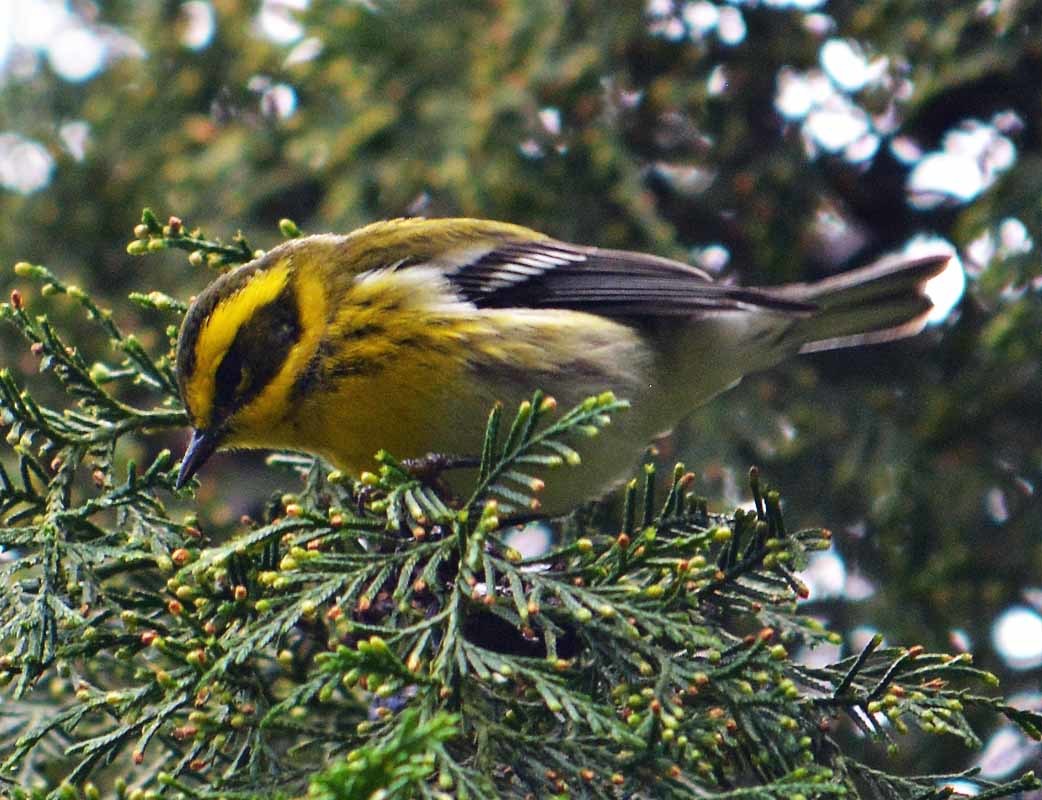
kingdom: Animalia
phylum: Chordata
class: Aves
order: Passeriformes
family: Parulidae
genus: Setophaga
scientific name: Setophaga townsendi
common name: Townsend's warbler
